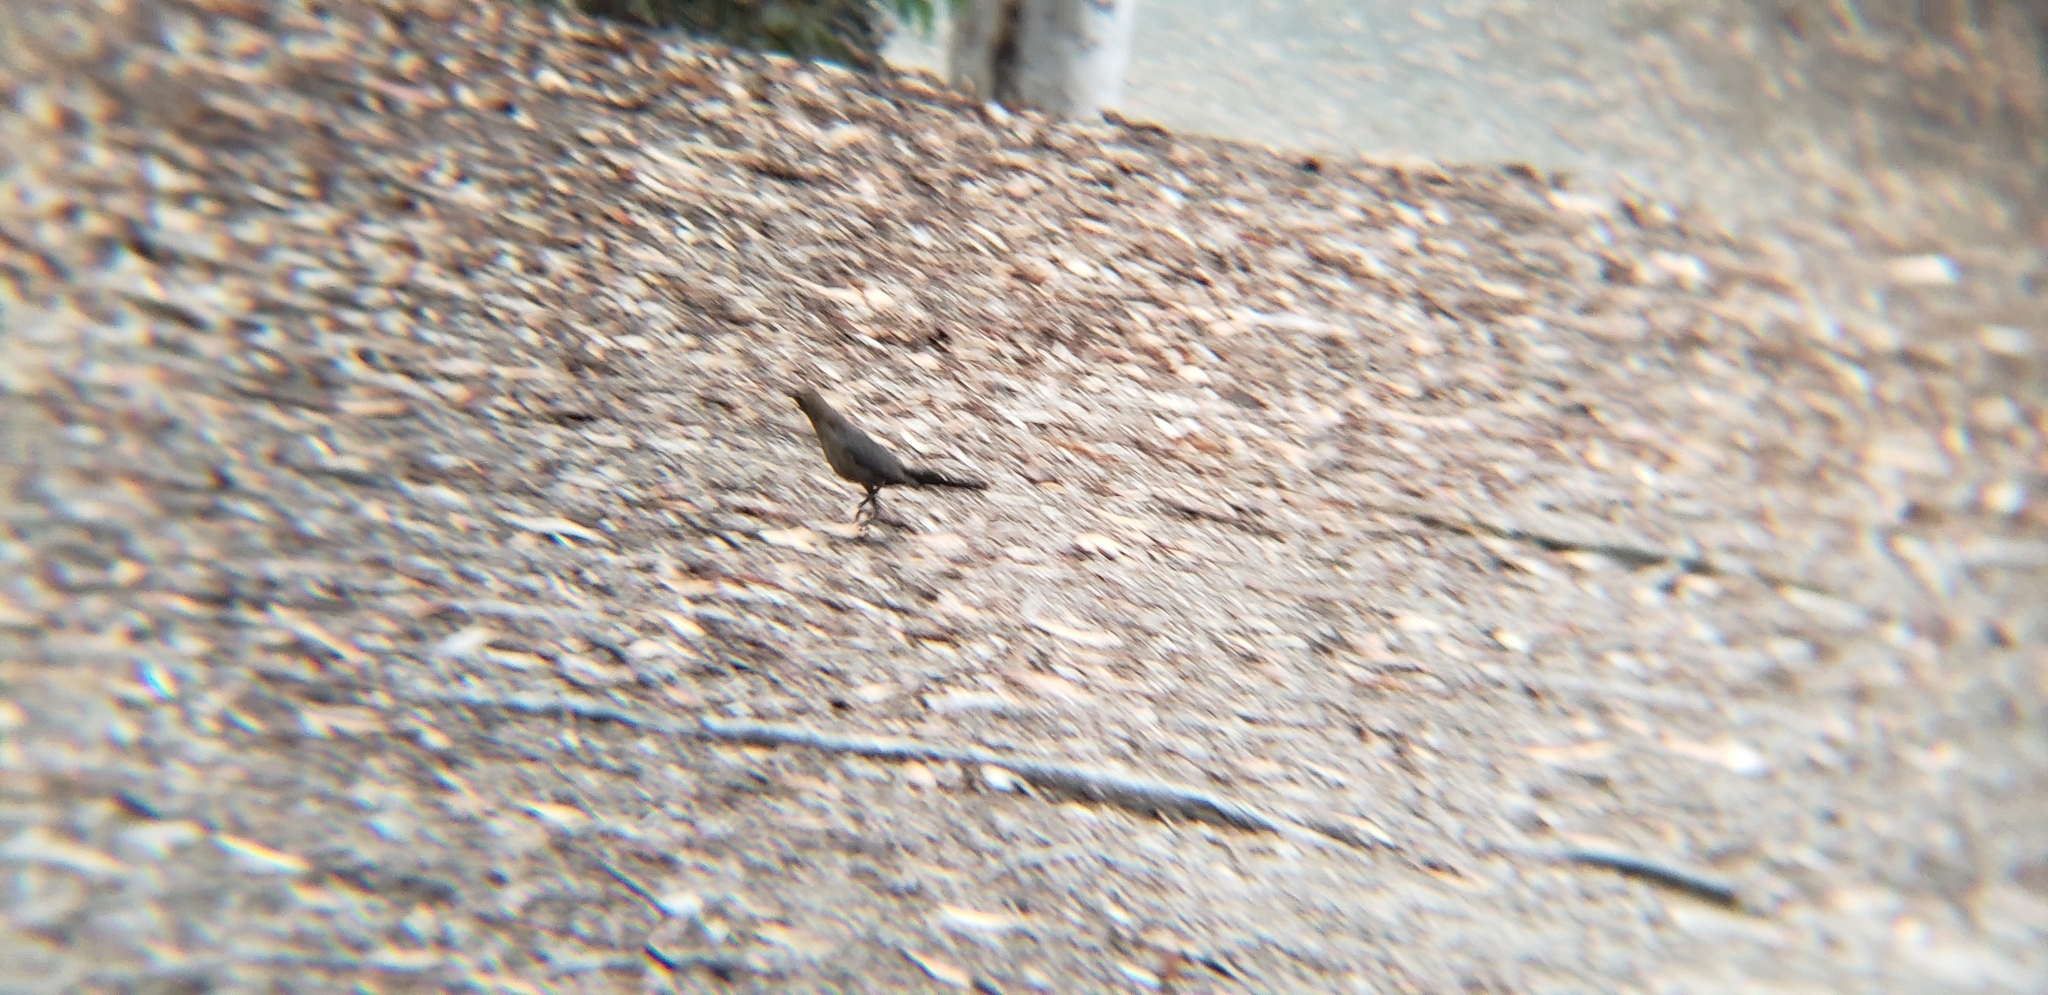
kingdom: Animalia
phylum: Chordata
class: Aves
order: Passeriformes
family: Icteridae
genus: Quiscalus
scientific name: Quiscalus mexicanus
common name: Great-tailed grackle
